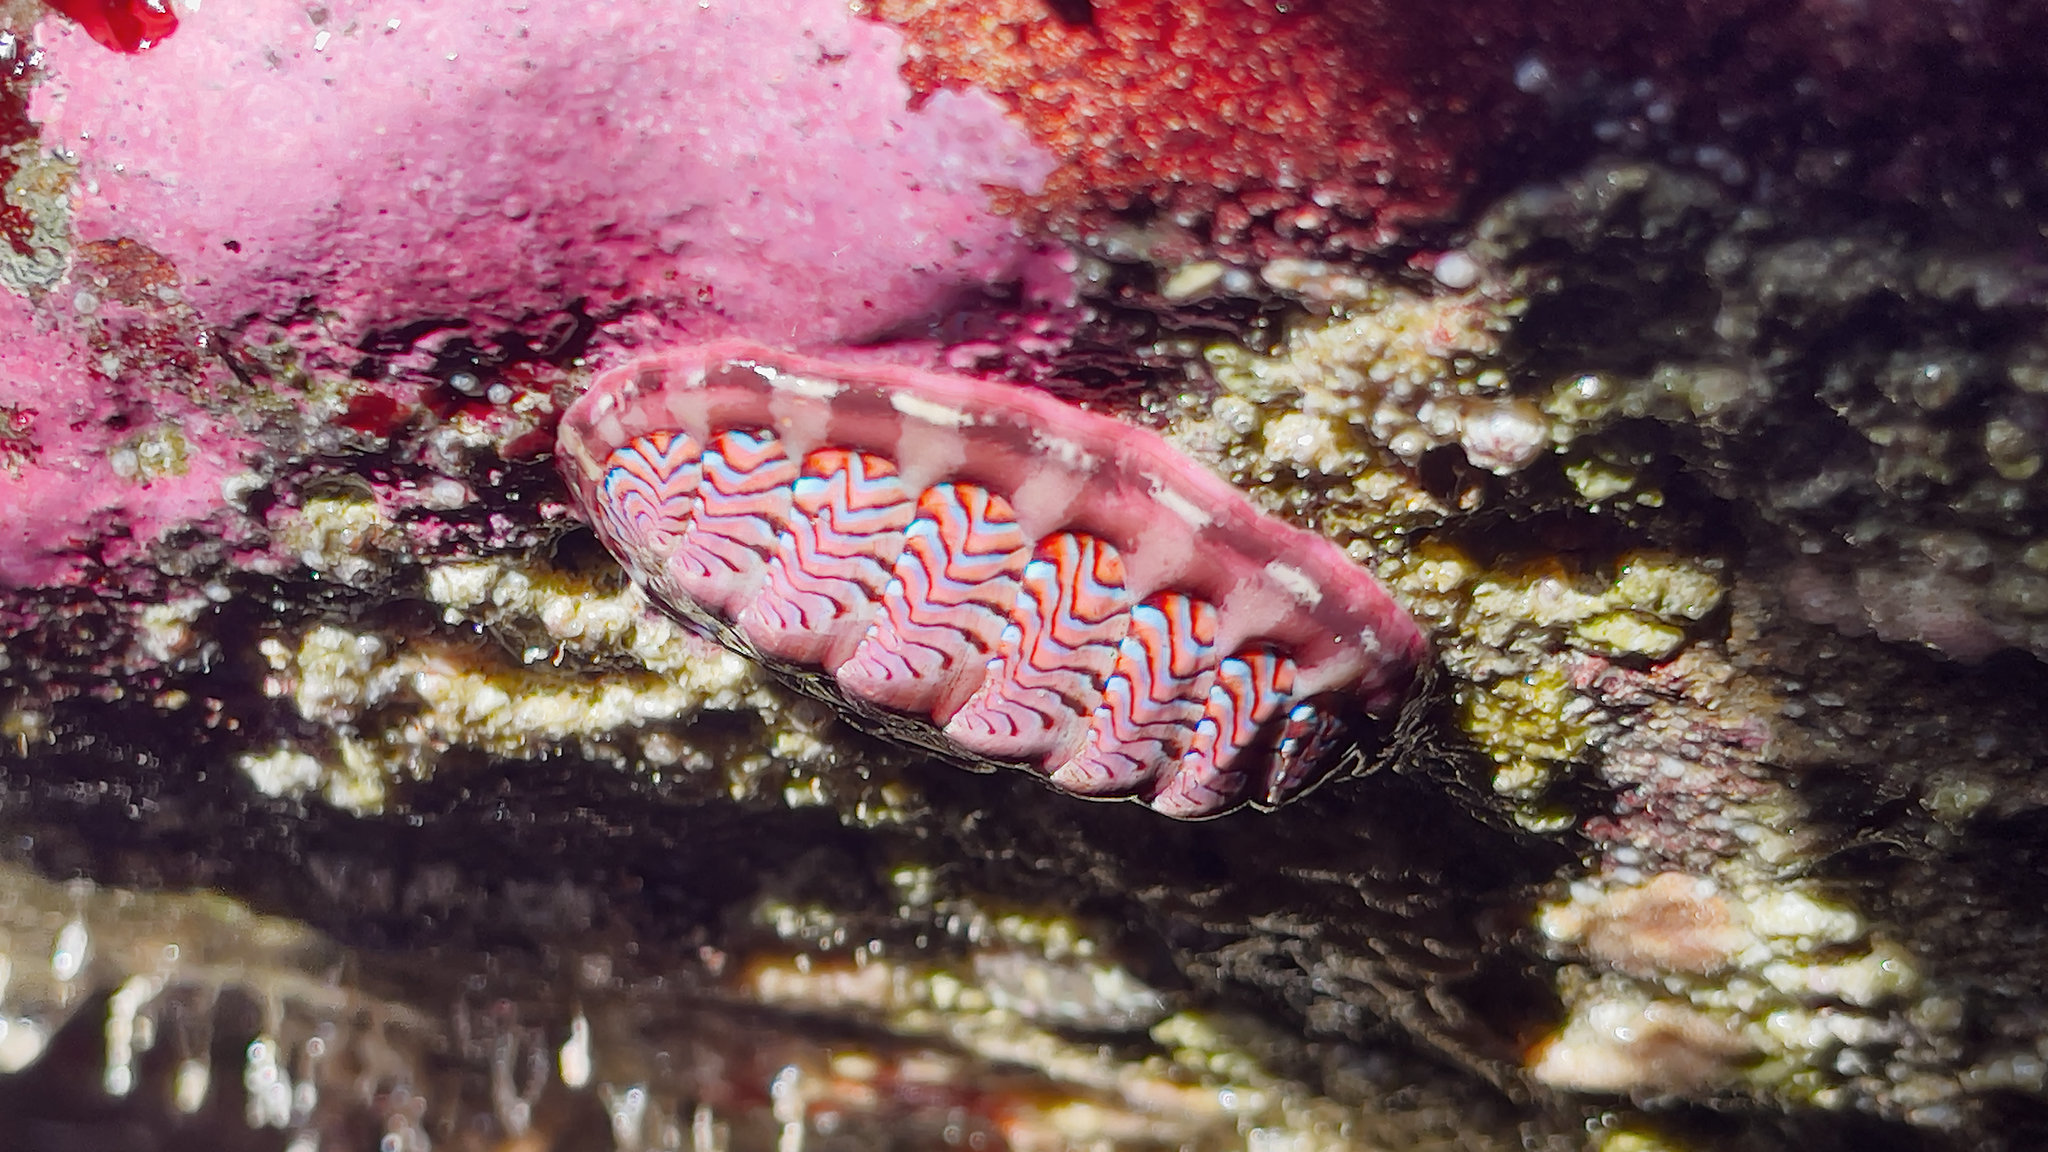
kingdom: Animalia
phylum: Mollusca
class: Polyplacophora
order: Chitonida
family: Tonicellidae
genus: Tonicella
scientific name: Tonicella lokii
